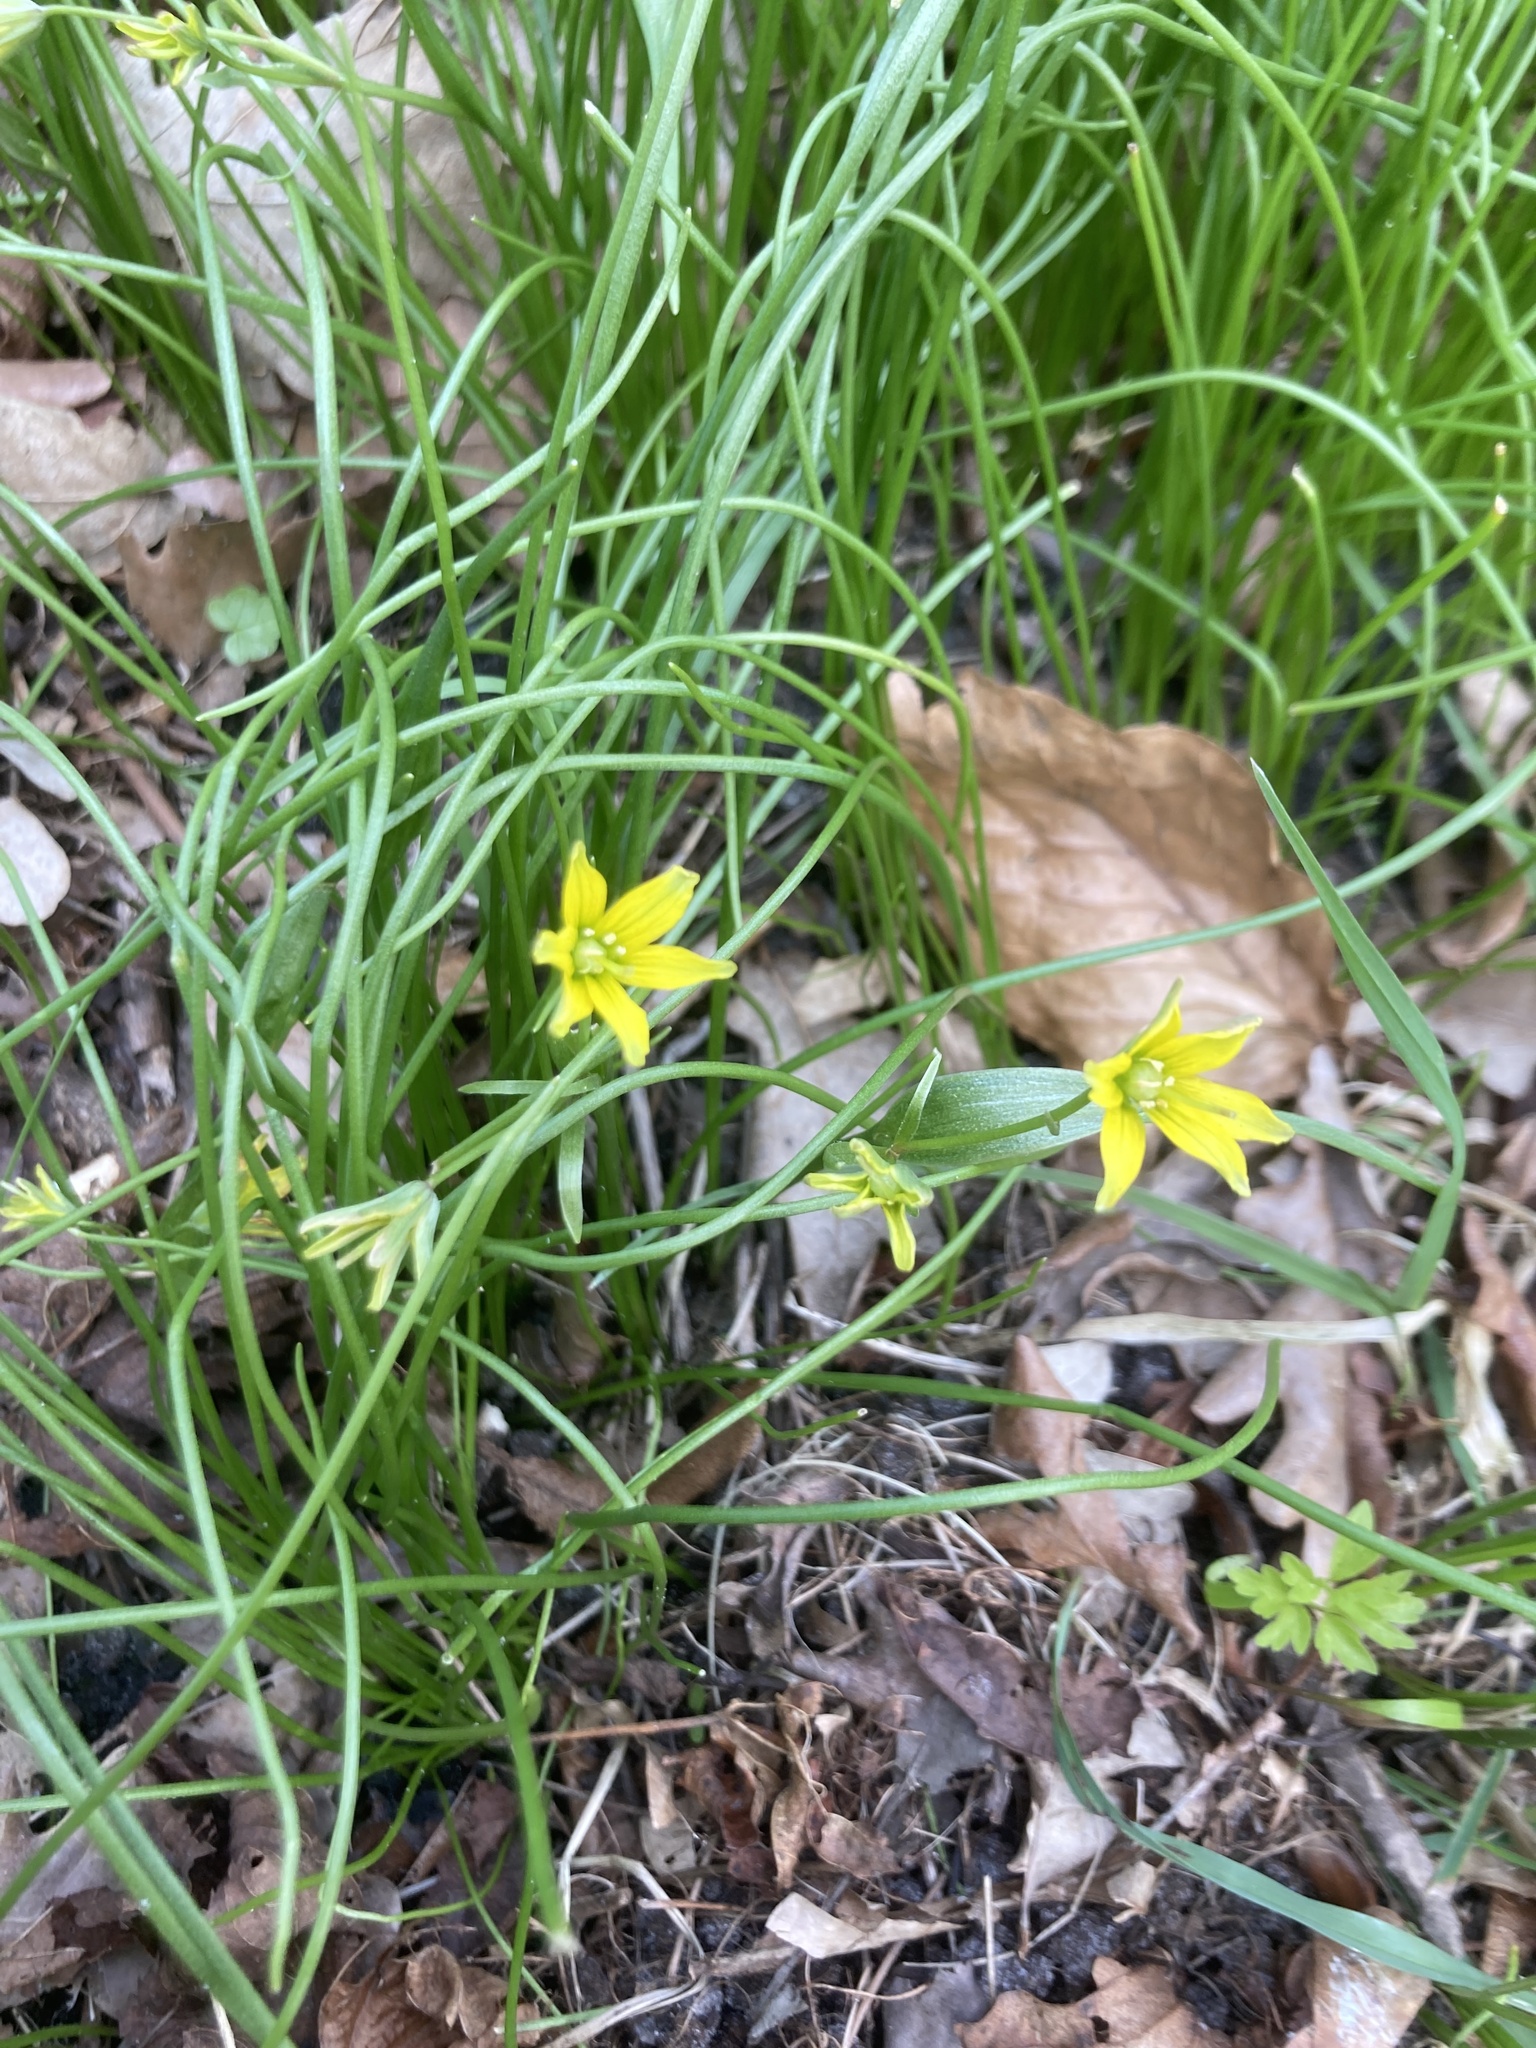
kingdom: Plantae
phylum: Tracheophyta
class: Liliopsida
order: Liliales
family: Liliaceae
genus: Gagea
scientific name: Gagea spathacea
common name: Belgian gagea
